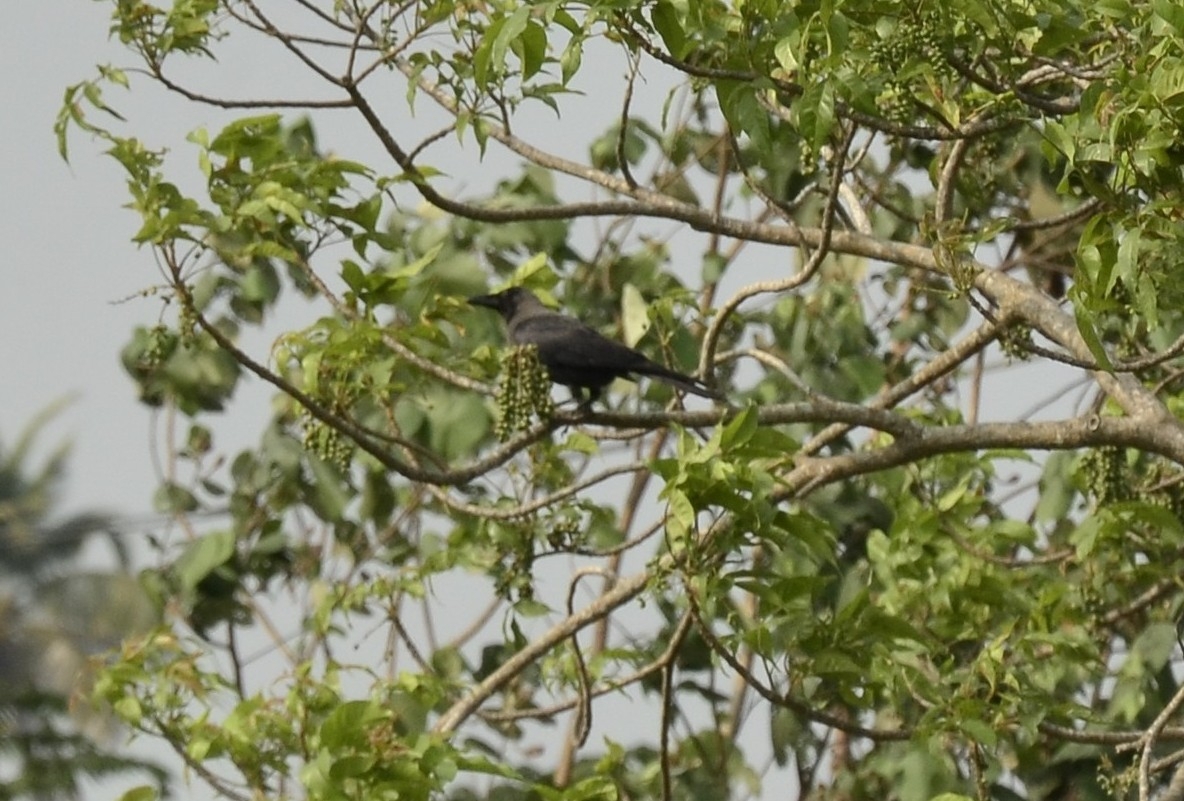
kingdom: Animalia
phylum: Chordata
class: Aves
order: Passeriformes
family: Corvidae
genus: Corvus
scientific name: Corvus splendens
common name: House crow
